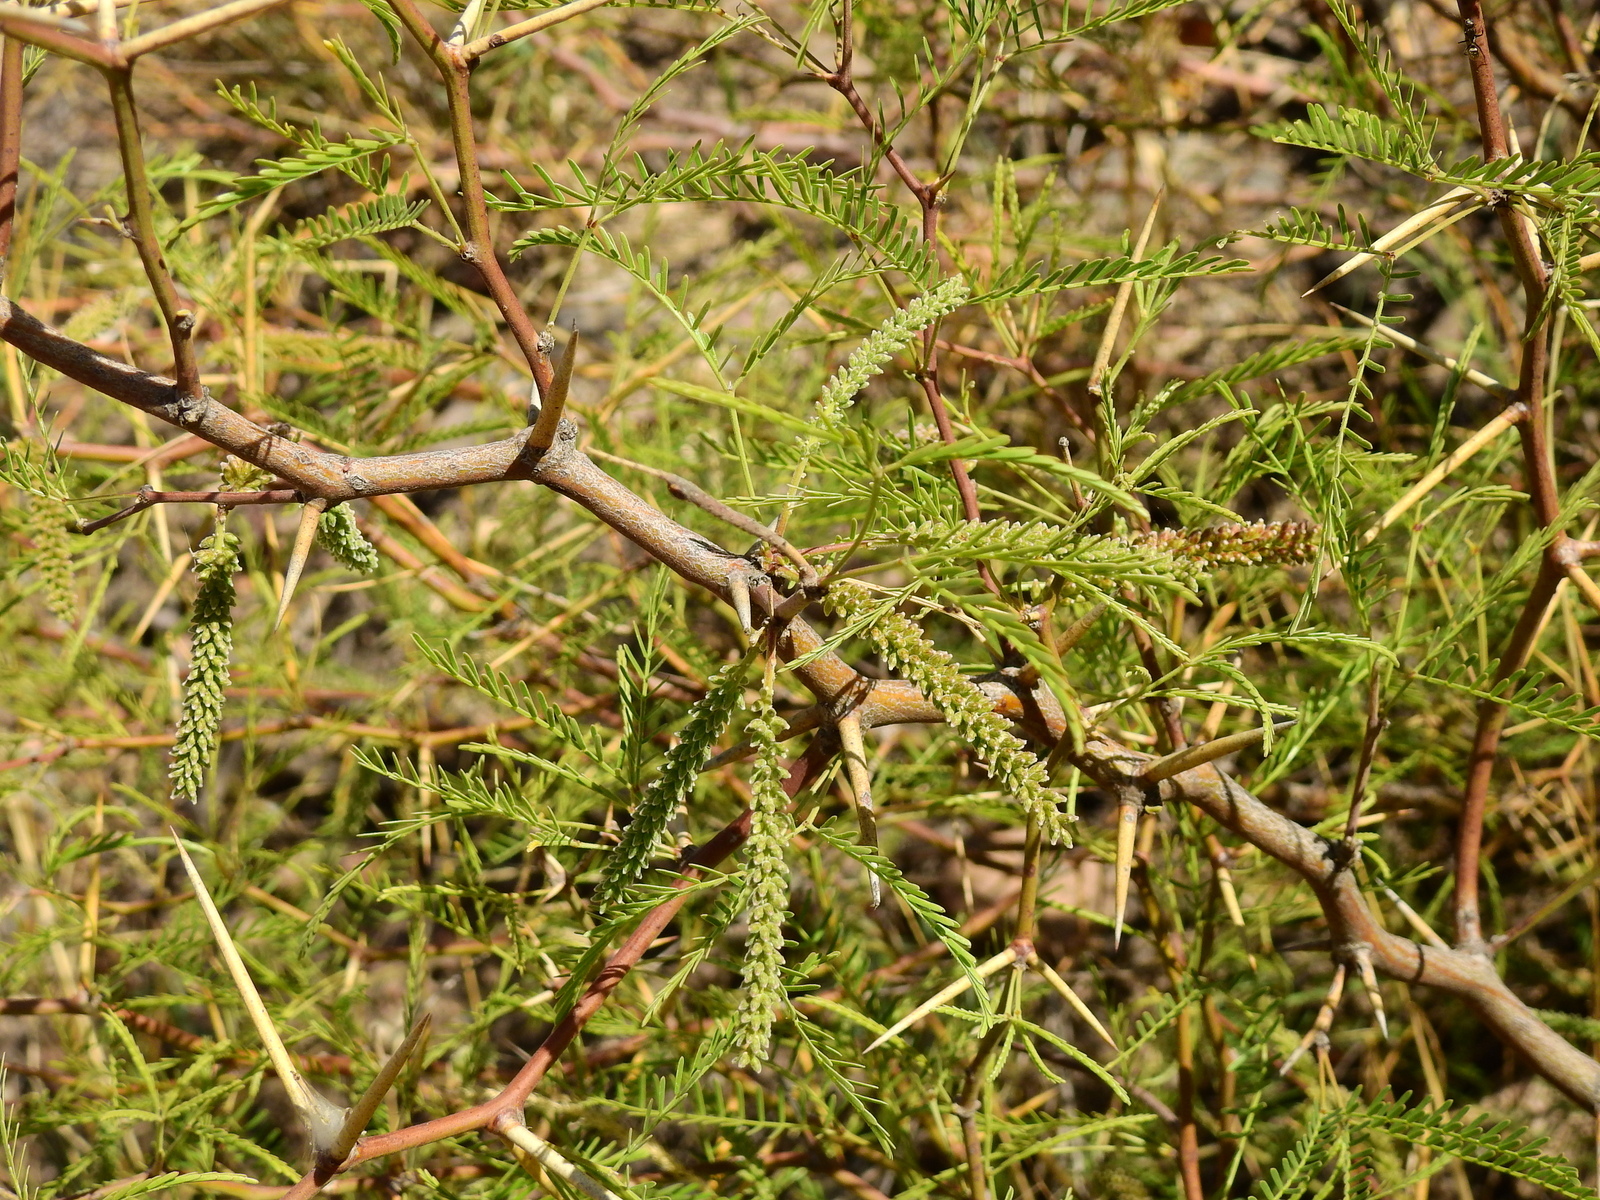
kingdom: Plantae
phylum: Tracheophyta
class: Magnoliopsida
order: Fabales
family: Fabaceae
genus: Prosopis
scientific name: Prosopis flexuosa
